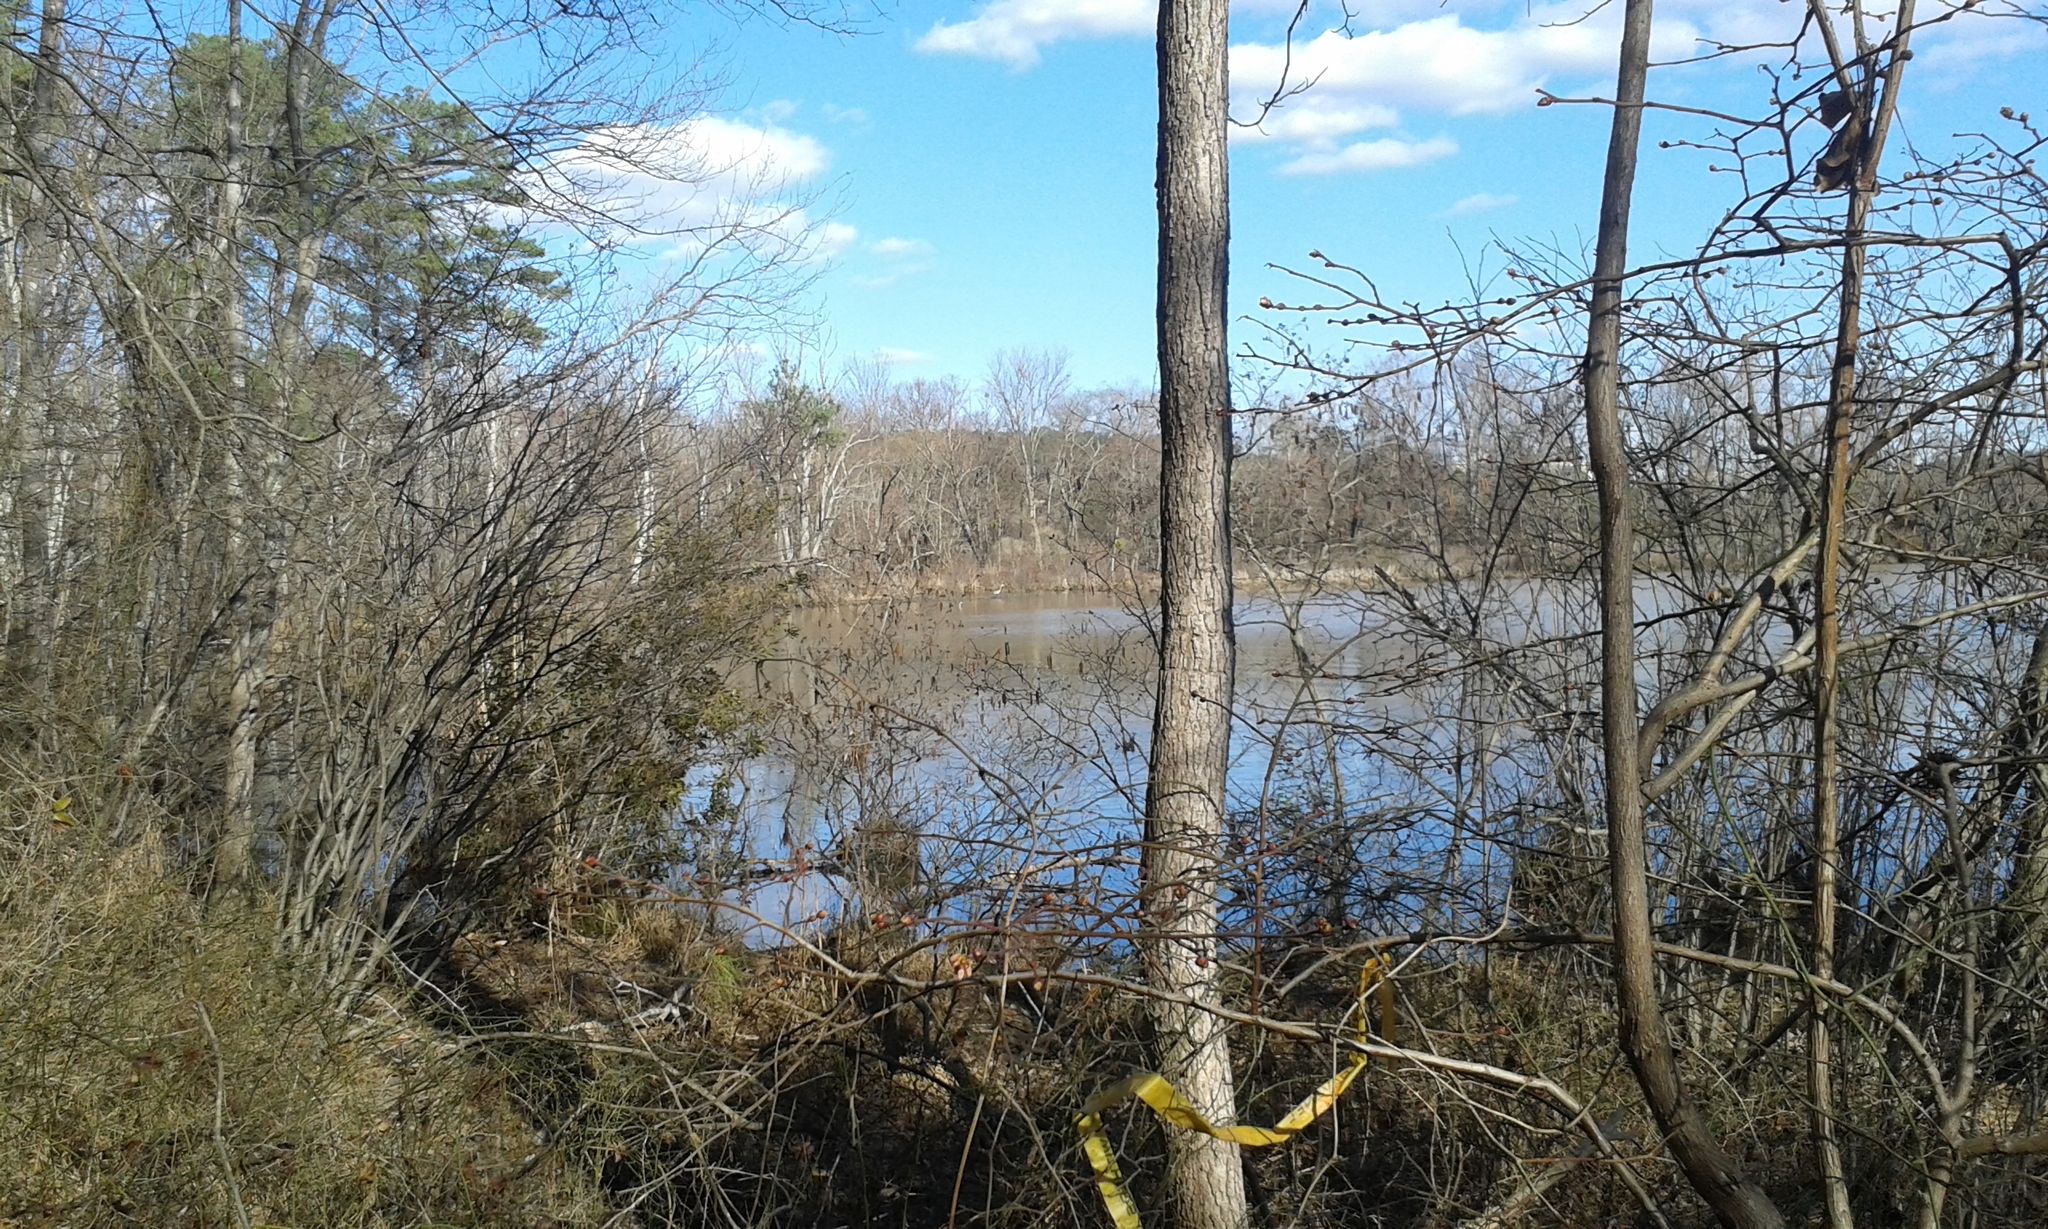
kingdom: Animalia
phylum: Chordata
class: Aves
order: Suliformes
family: Phalacrocoracidae
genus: Phalacrocorax
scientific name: Phalacrocorax auritus
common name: Double-crested cormorant
